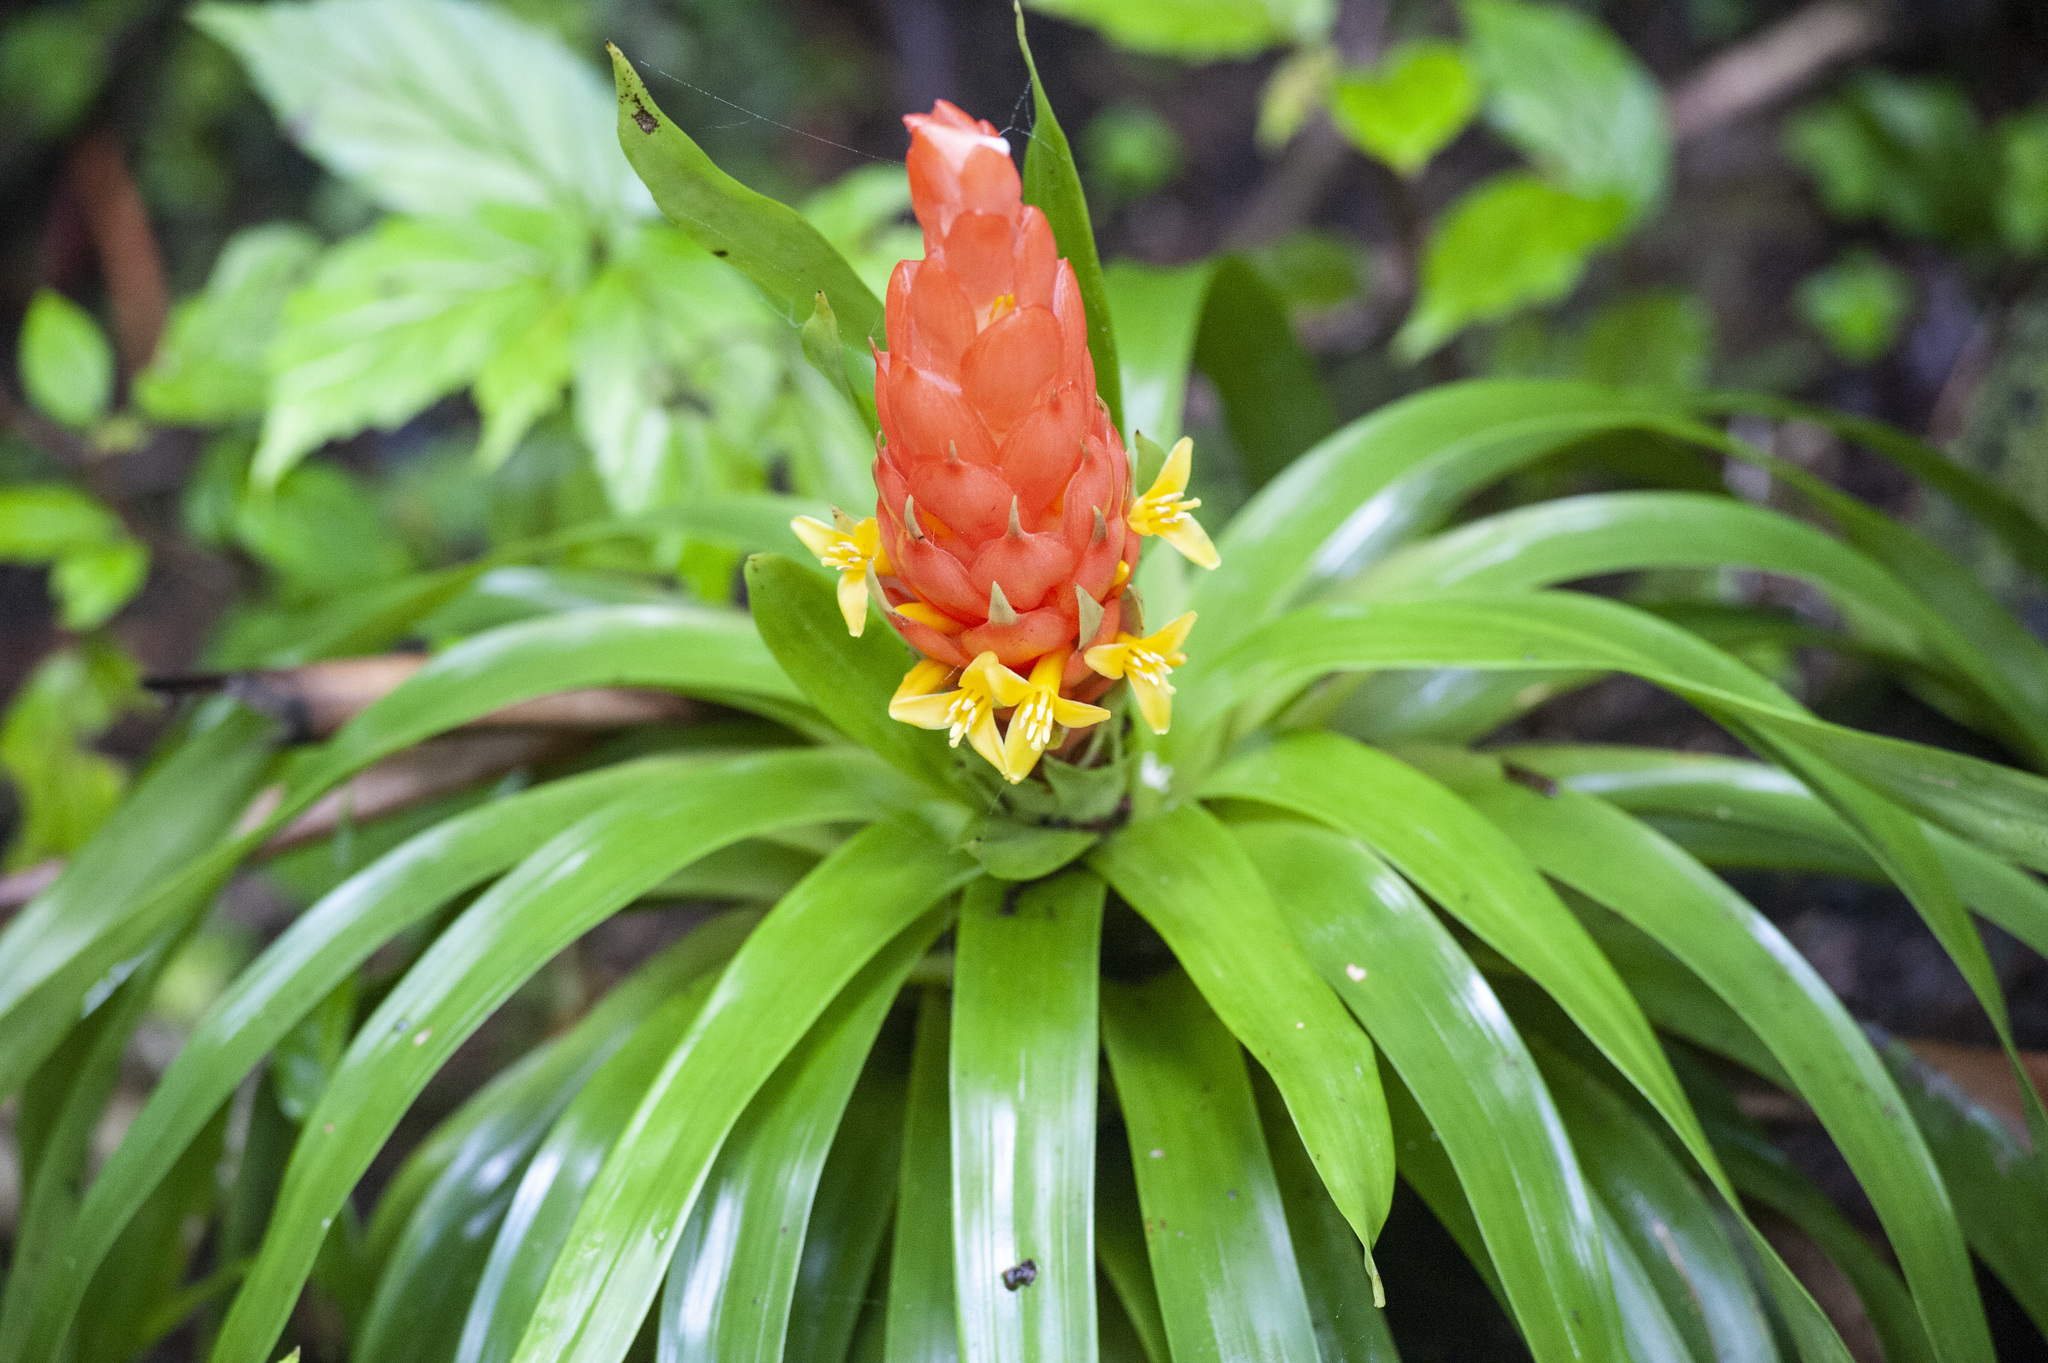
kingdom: Plantae
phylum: Tracheophyta
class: Liliopsida
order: Poales
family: Bromeliaceae
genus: Guzmania
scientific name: Guzmania berteroniana
